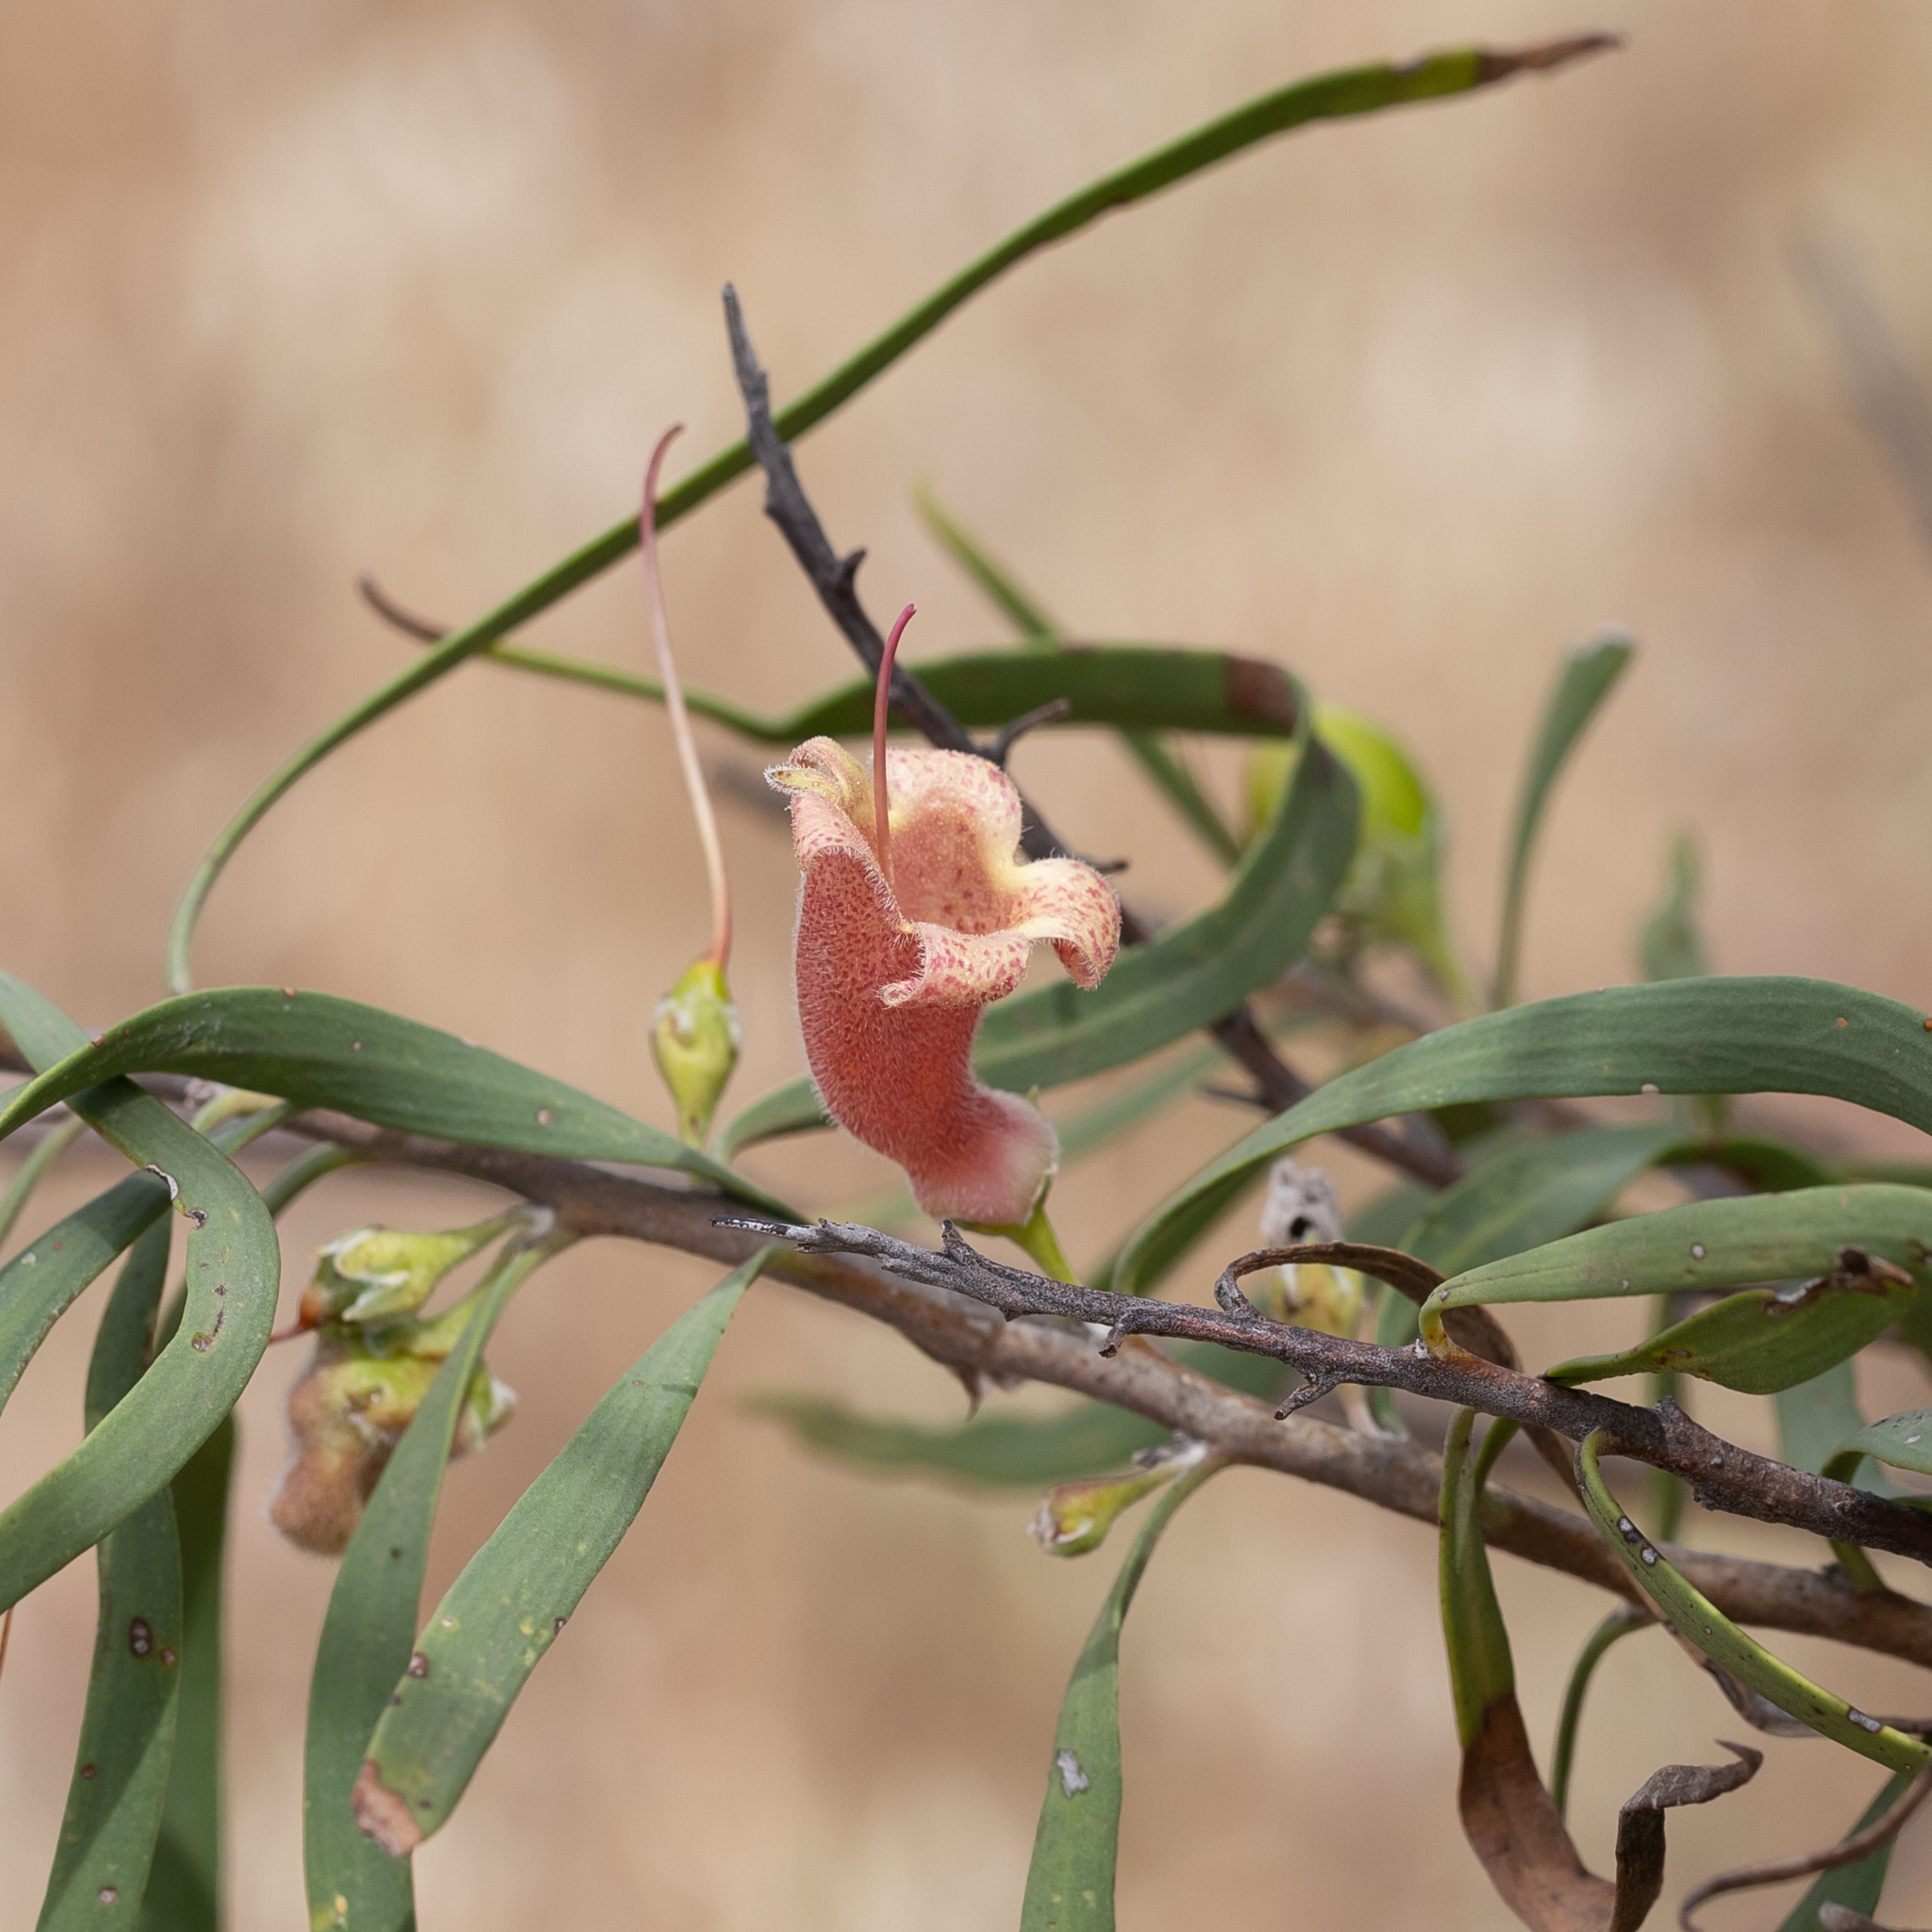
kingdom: Plantae
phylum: Tracheophyta
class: Magnoliopsida
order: Lamiales
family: Scrophulariaceae
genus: Eremophila
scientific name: Eremophila longifolia
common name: Longleaf emubush
